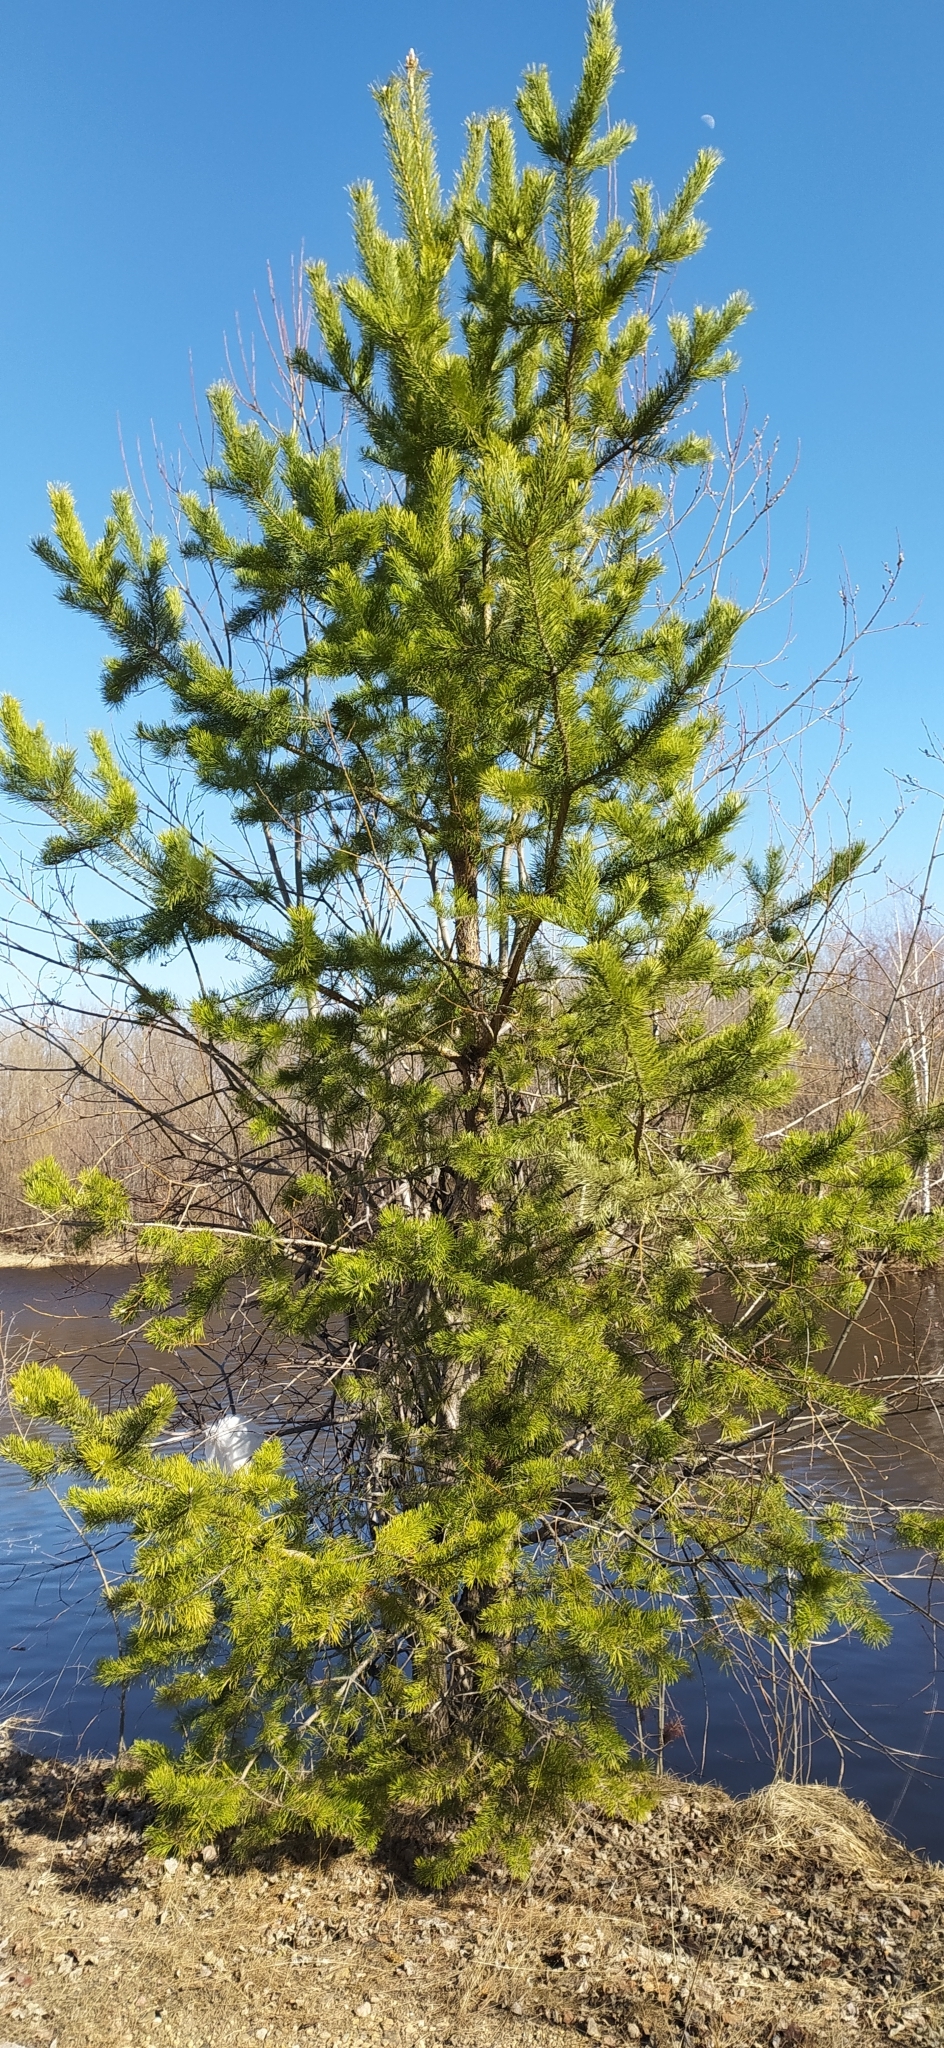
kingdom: Plantae
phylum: Tracheophyta
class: Pinopsida
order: Pinales
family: Pinaceae
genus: Pinus
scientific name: Pinus sylvestris
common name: Scots pine
